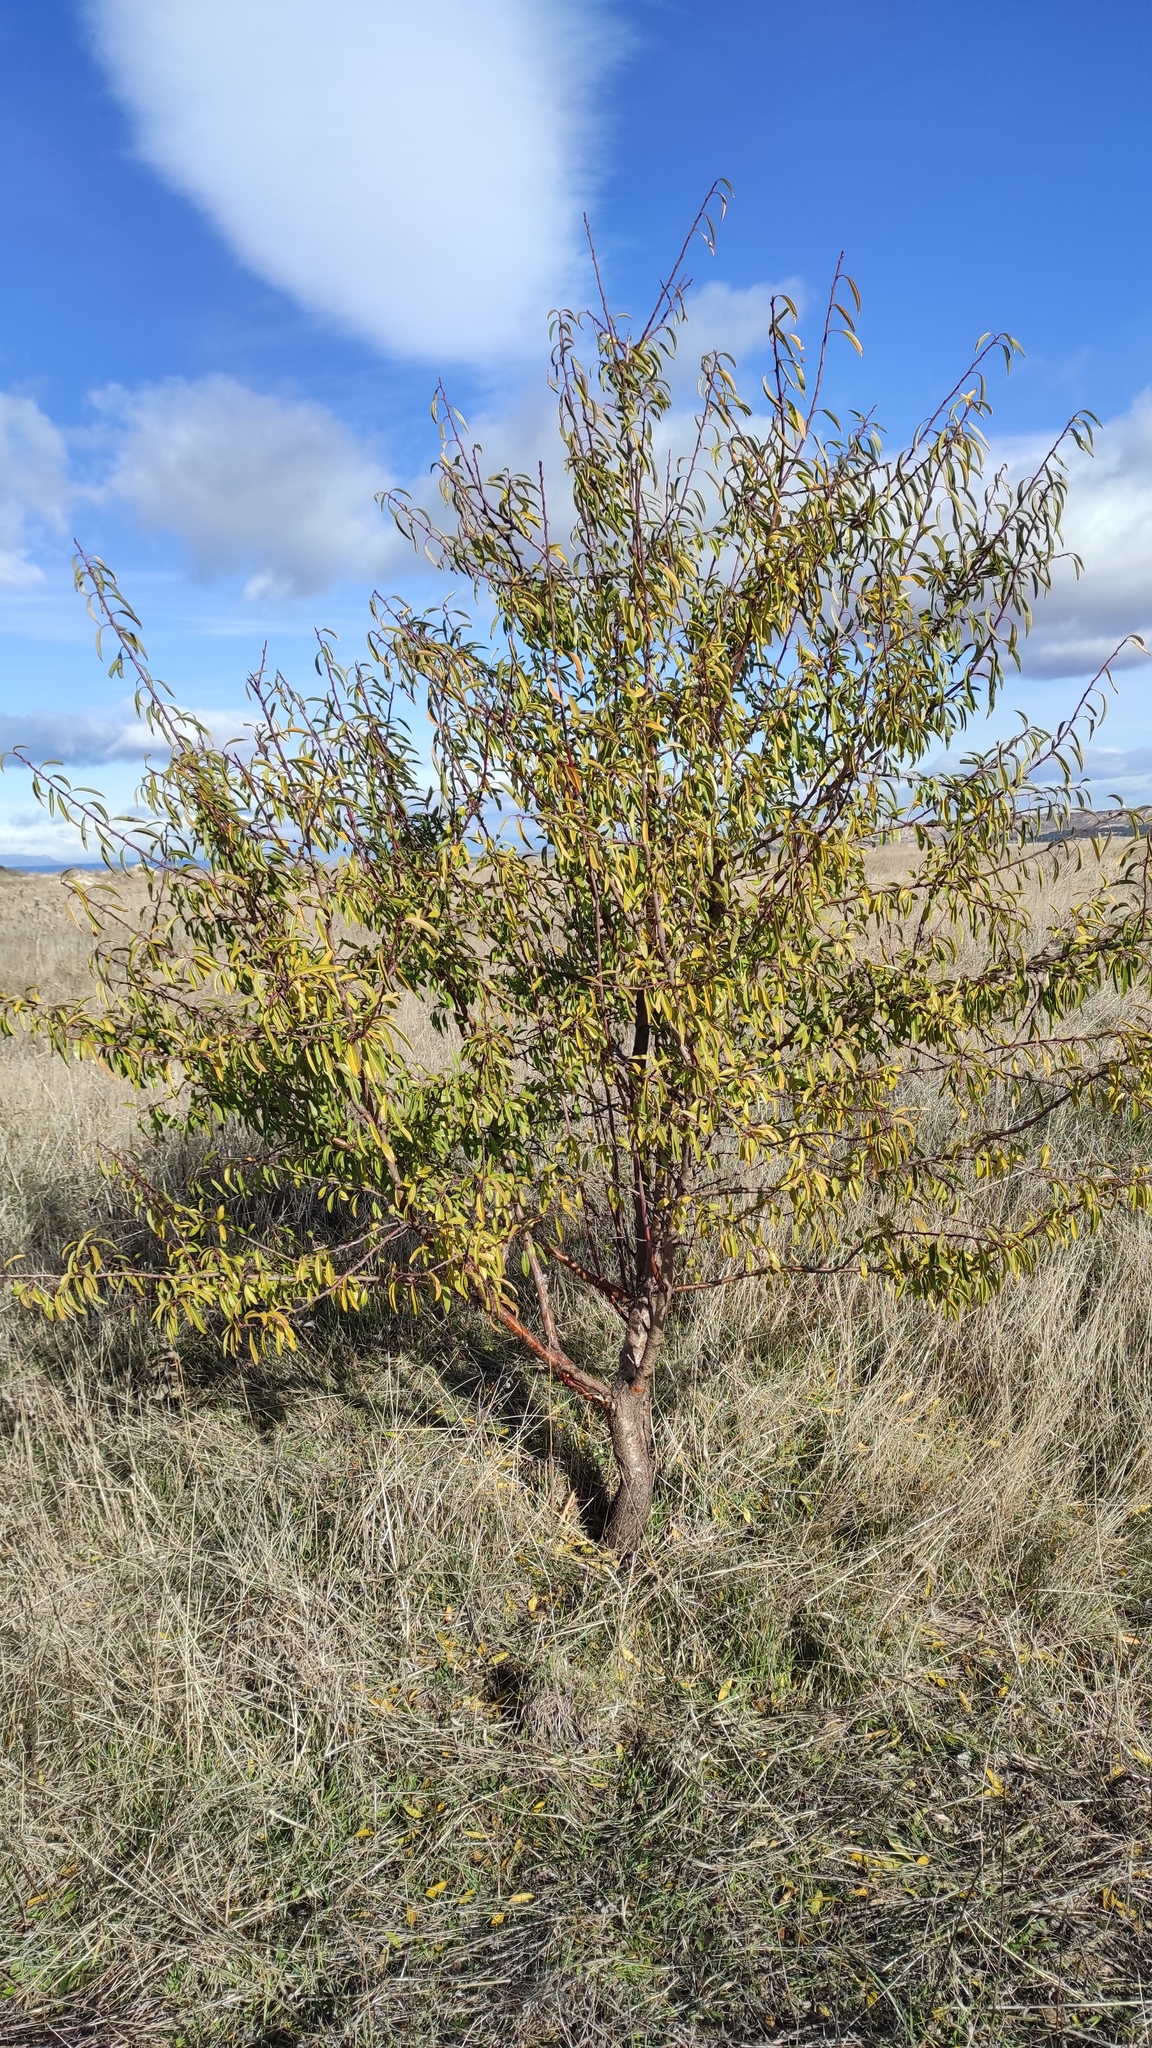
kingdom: Plantae
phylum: Tracheophyta
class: Magnoliopsida
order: Rosales
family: Rosaceae
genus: Prunus
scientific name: Prunus amygdalus
